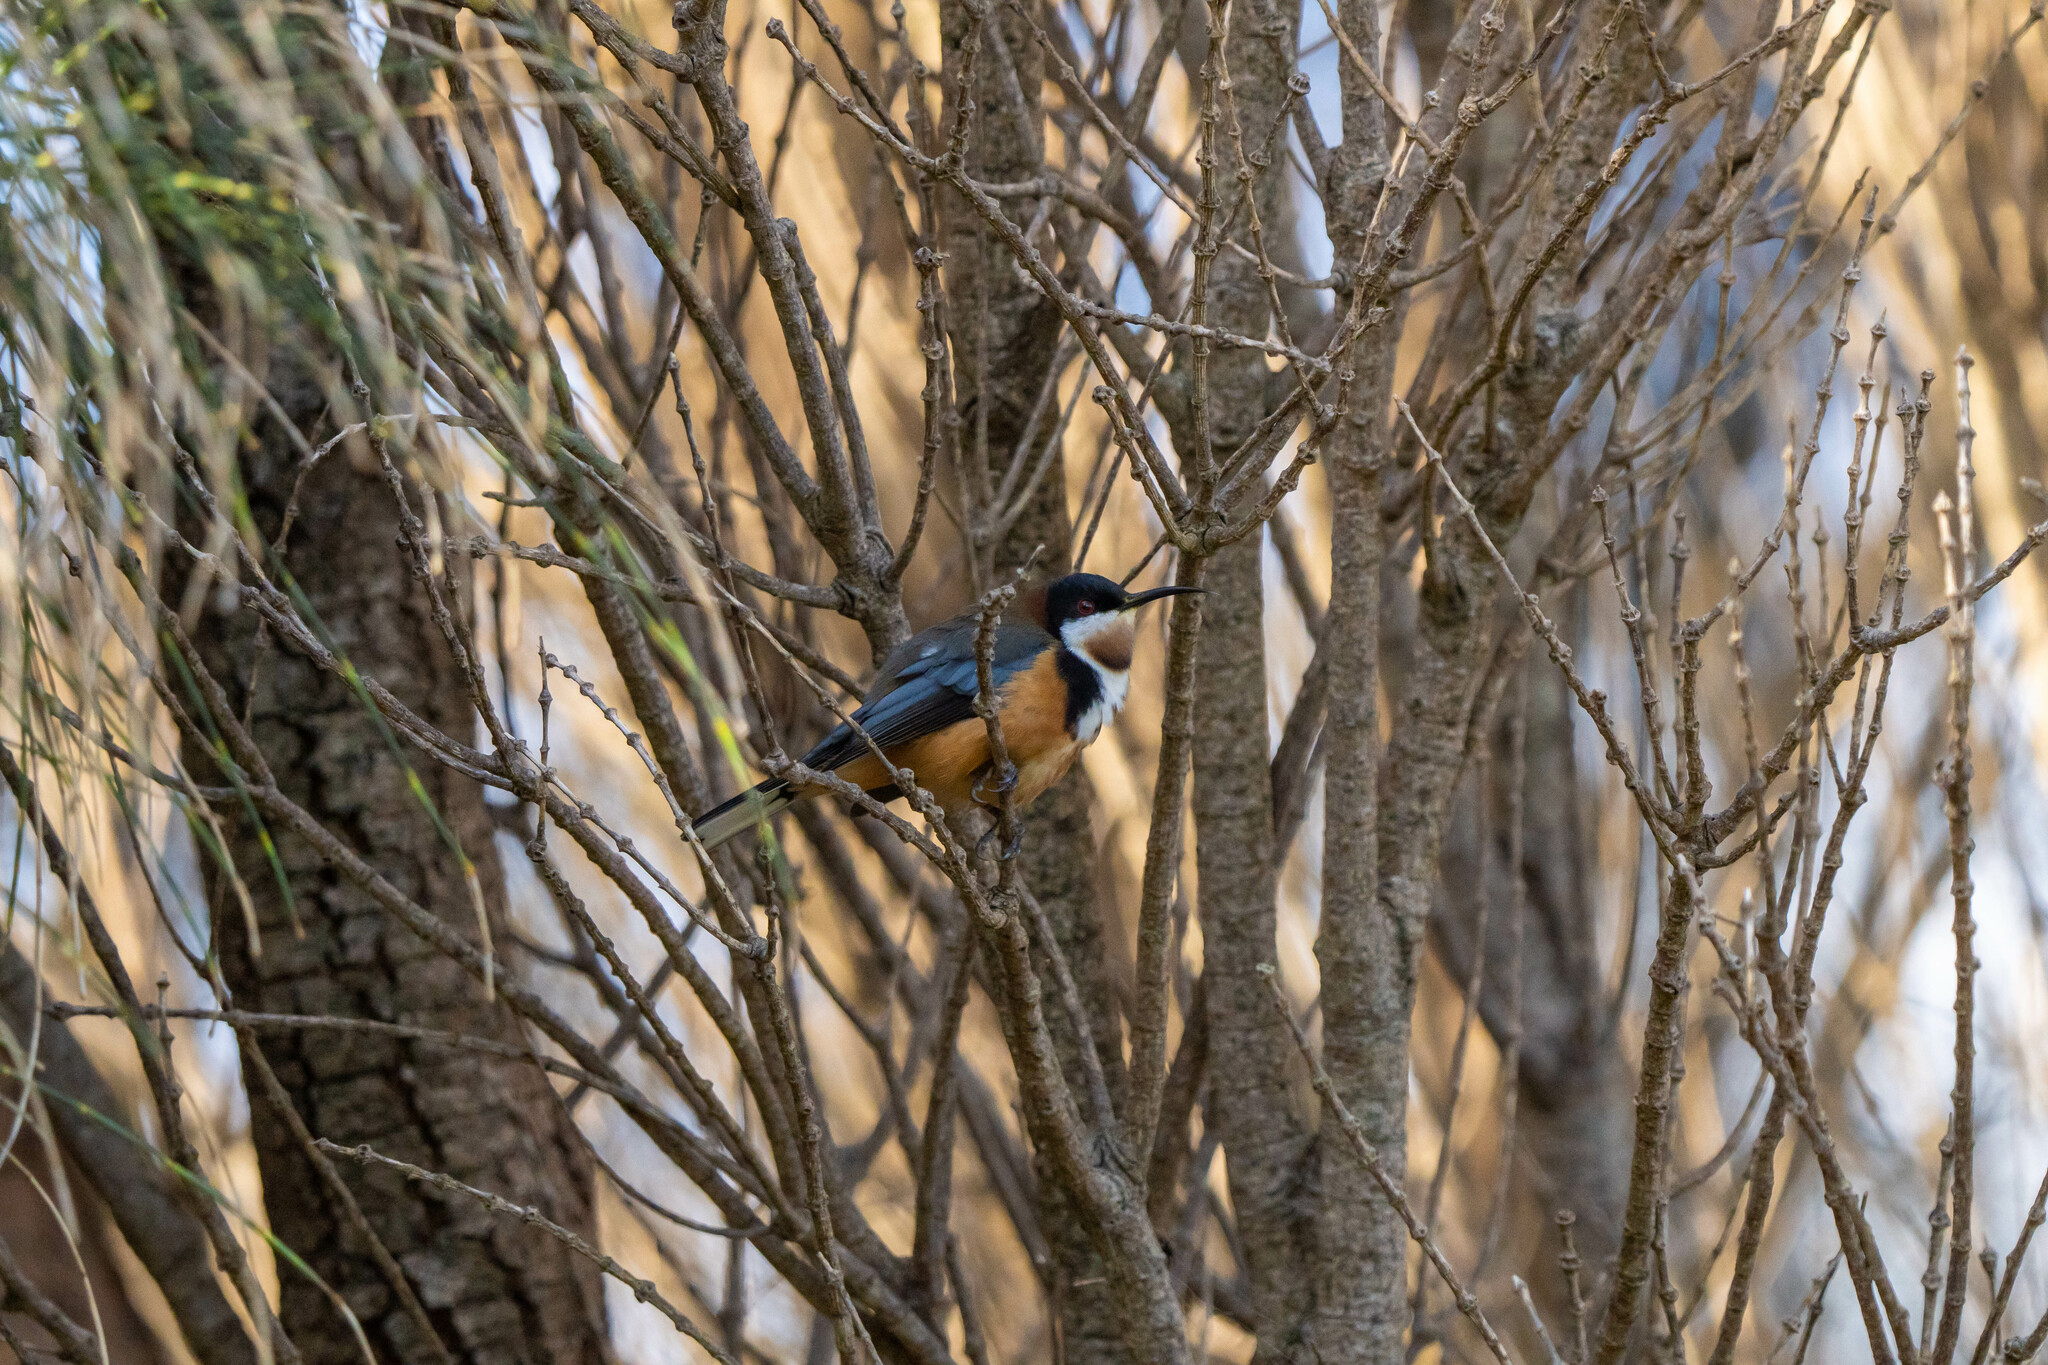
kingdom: Animalia
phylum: Chordata
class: Aves
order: Passeriformes
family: Meliphagidae
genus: Acanthorhynchus
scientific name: Acanthorhynchus tenuirostris
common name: Eastern spinebill
